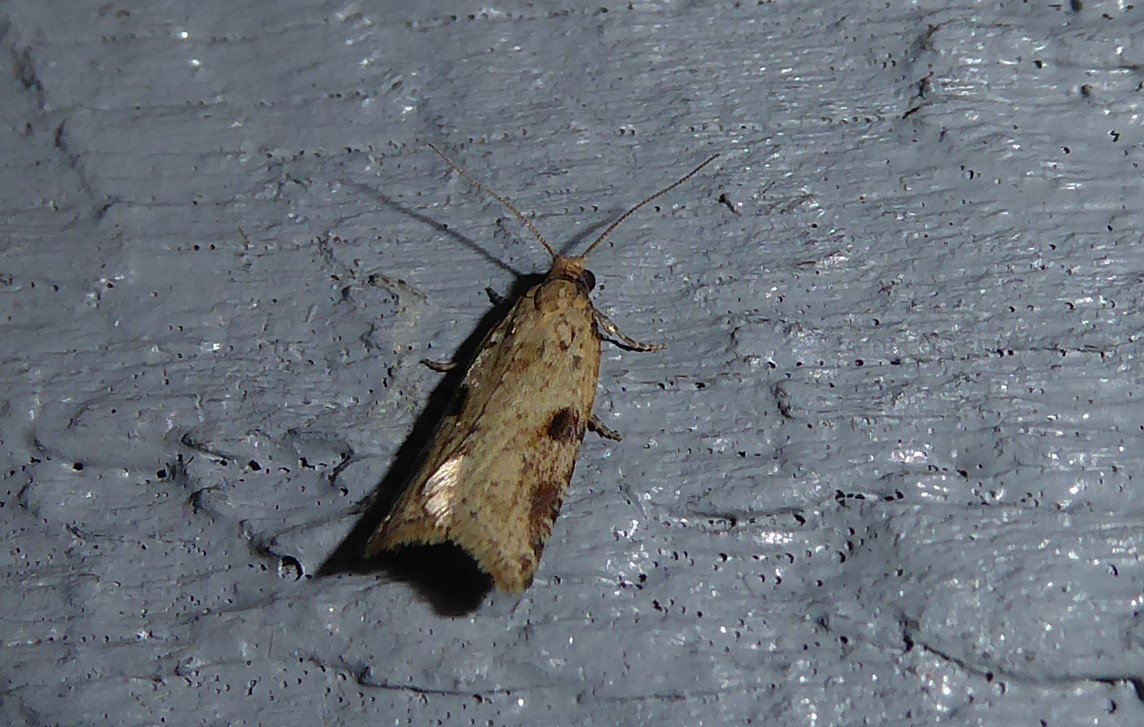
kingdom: Animalia
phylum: Arthropoda
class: Insecta
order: Lepidoptera
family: Tortricidae
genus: Capua
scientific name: Capua semiferana
